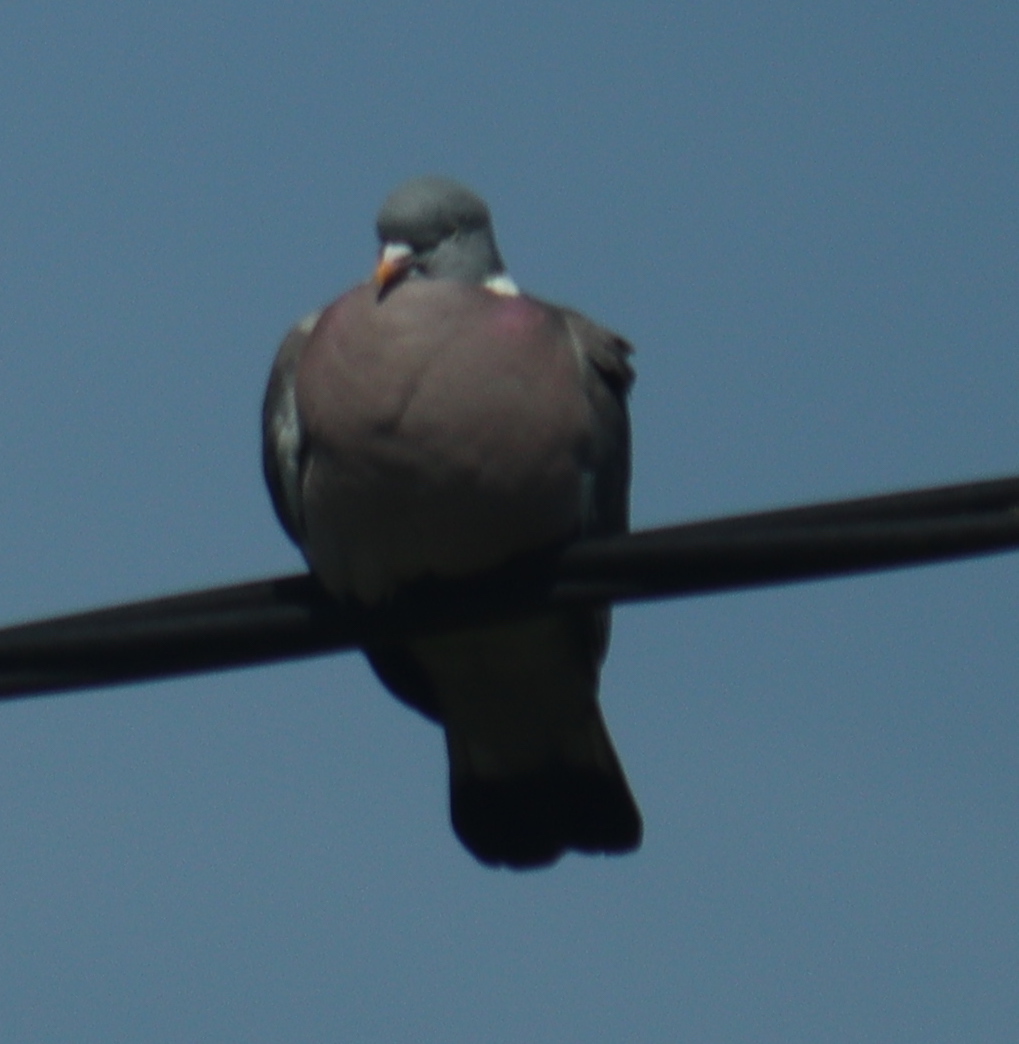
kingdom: Animalia
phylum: Chordata
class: Aves
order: Columbiformes
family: Columbidae
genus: Columba
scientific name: Columba palumbus
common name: Common wood pigeon
